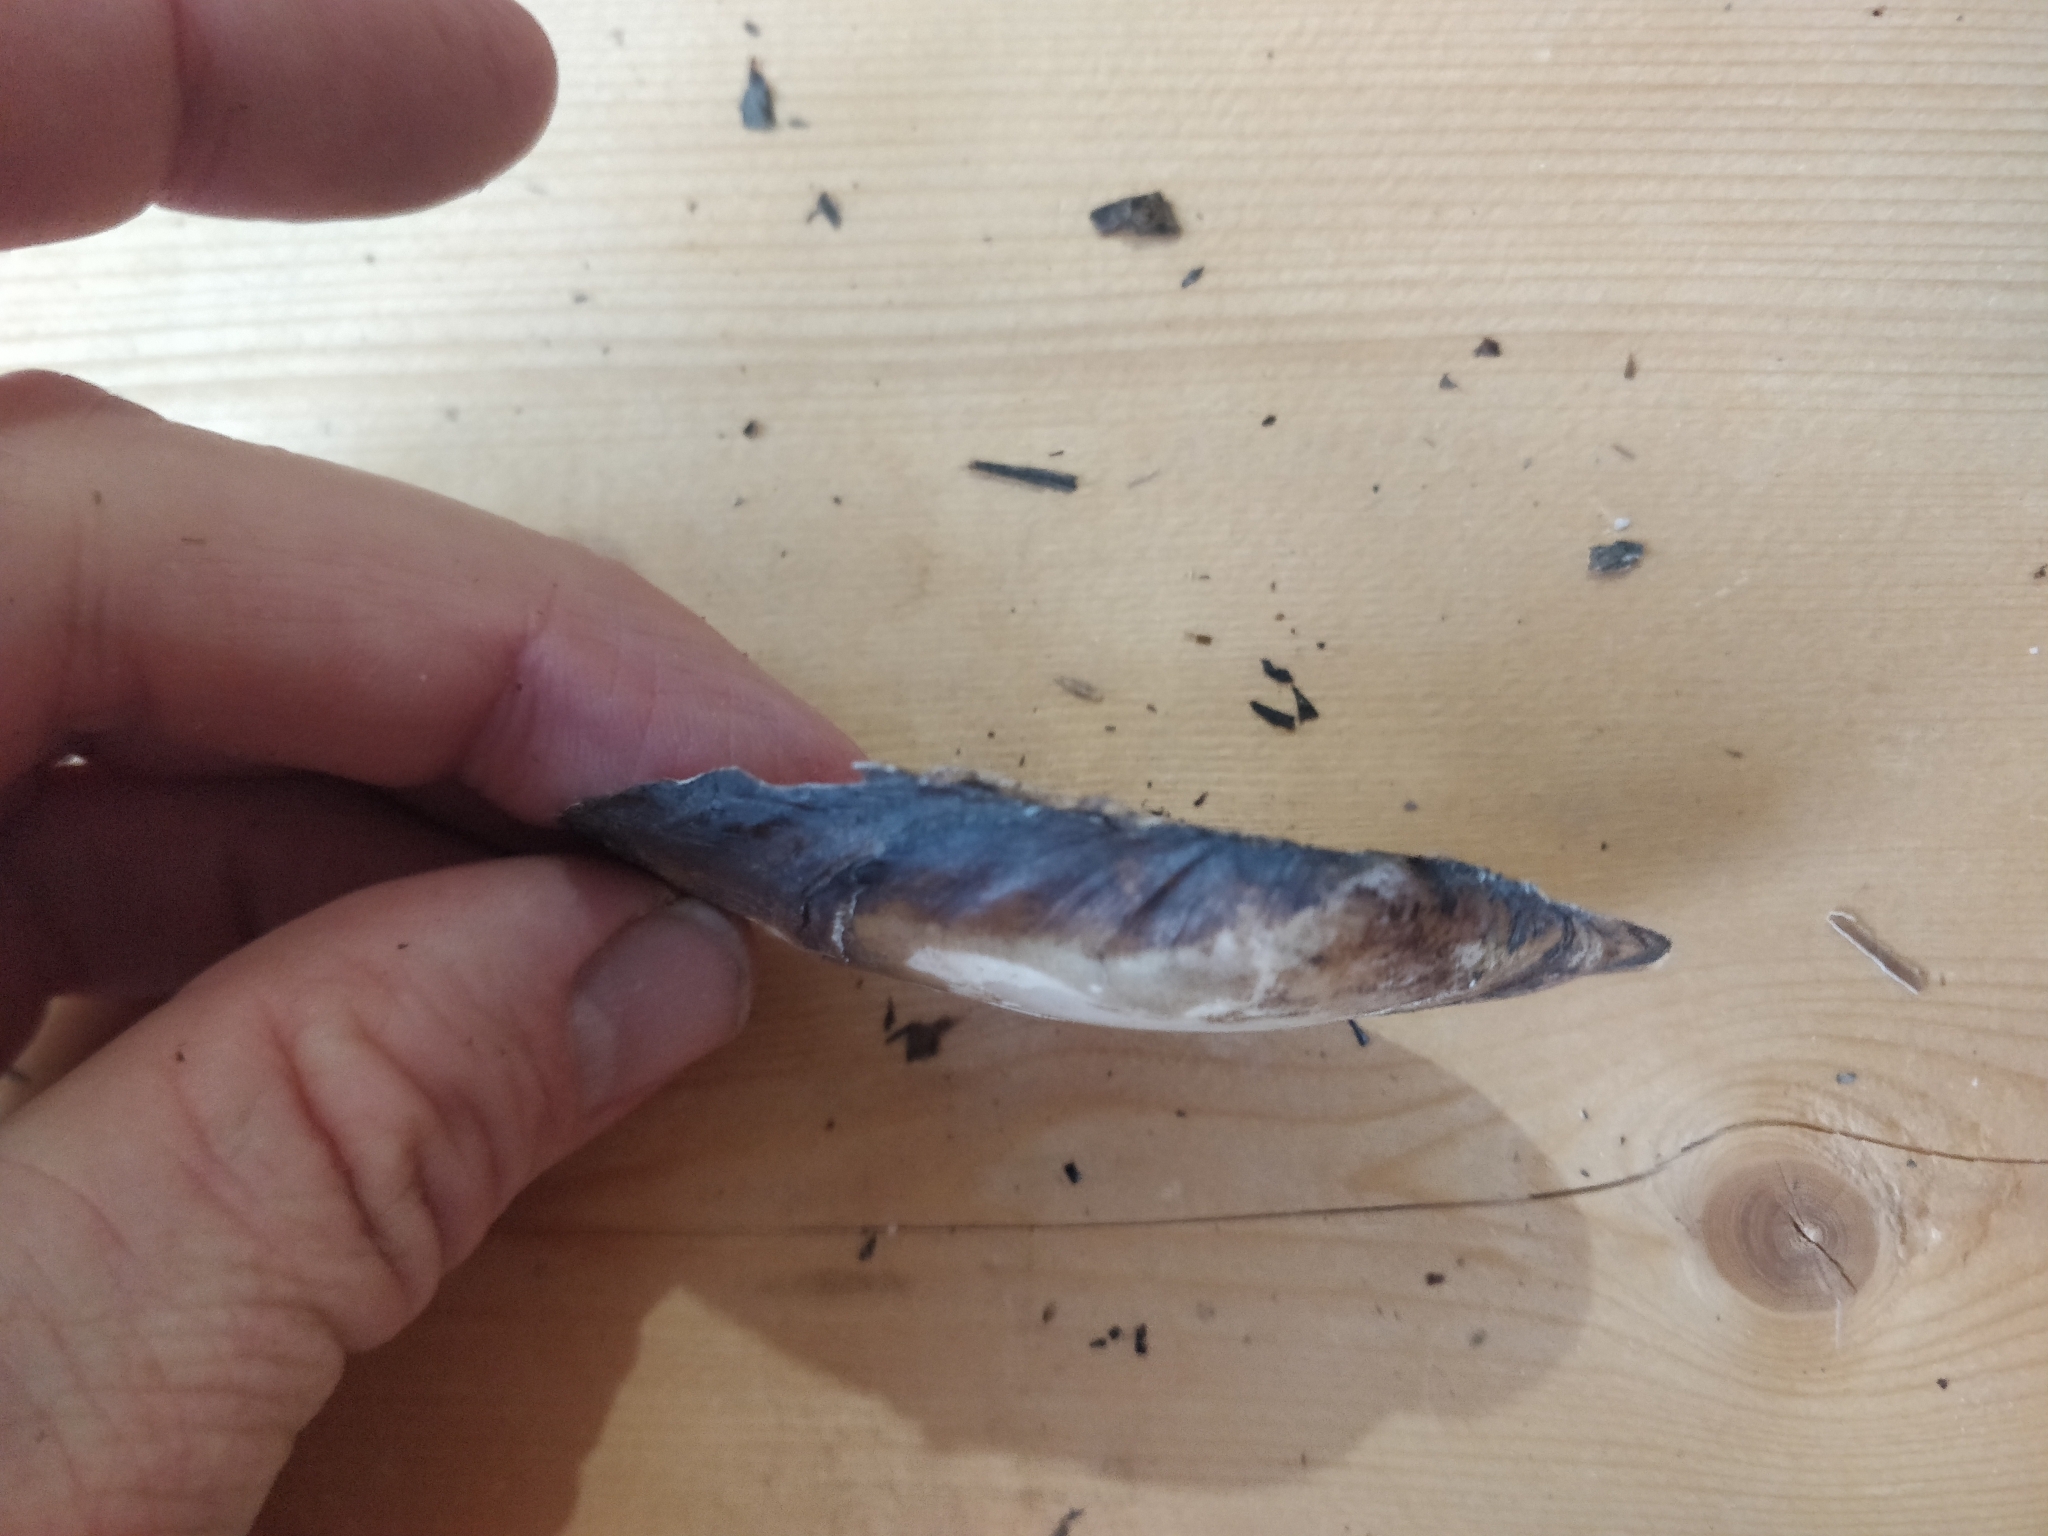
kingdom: Animalia
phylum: Mollusca
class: Bivalvia
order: Unionida
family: Unionidae
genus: Potamilus
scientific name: Potamilus fragilis
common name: Fragile papershell
